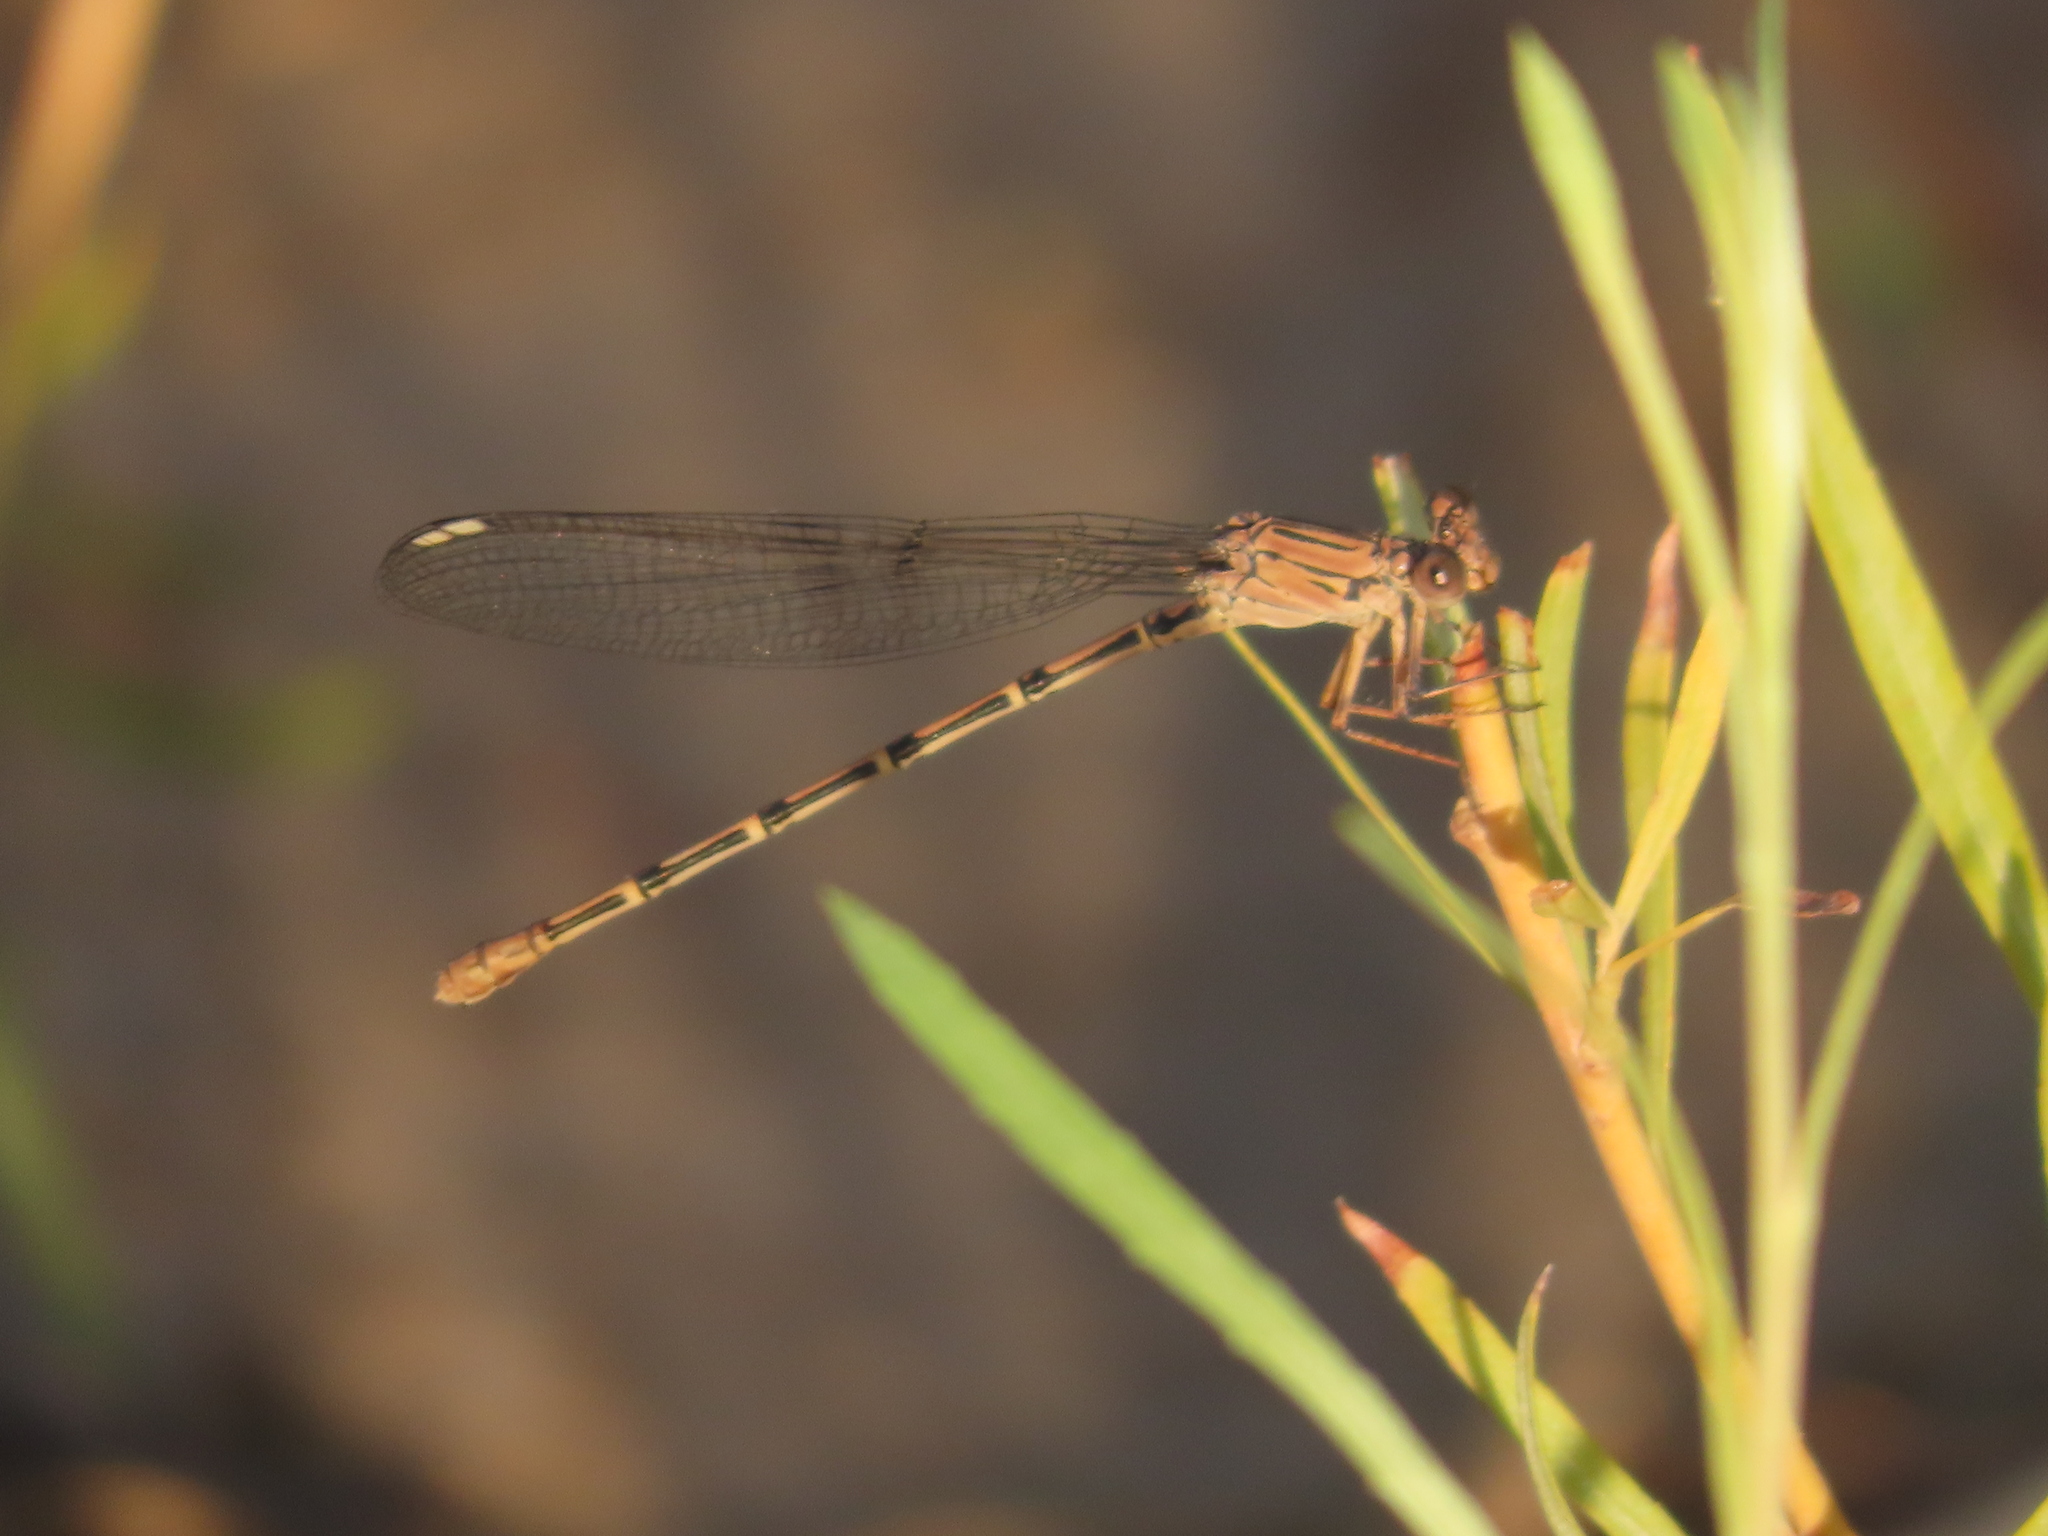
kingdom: Animalia
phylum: Arthropoda
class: Insecta
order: Odonata
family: Coenagrionidae
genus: Argia
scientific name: Argia lugens
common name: Sooty dancer
